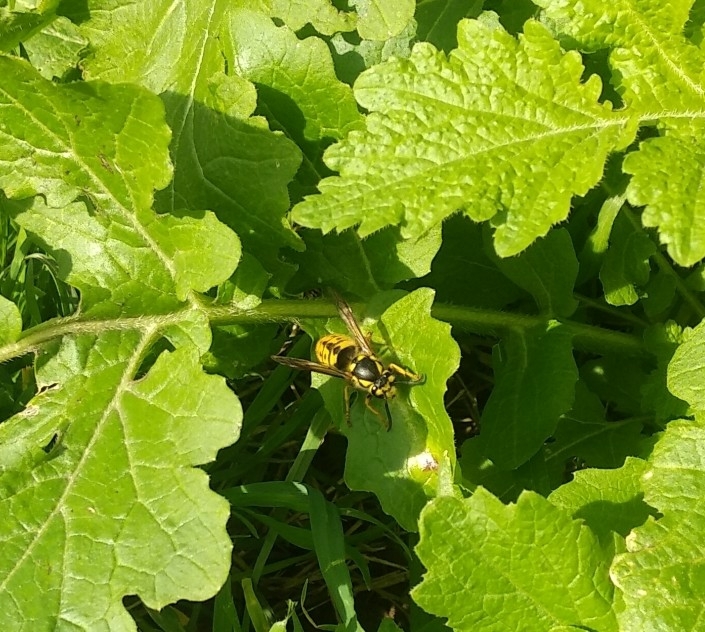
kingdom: Animalia
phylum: Arthropoda
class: Insecta
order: Hymenoptera
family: Vespidae
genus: Vespula
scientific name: Vespula germanica
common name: German wasp
